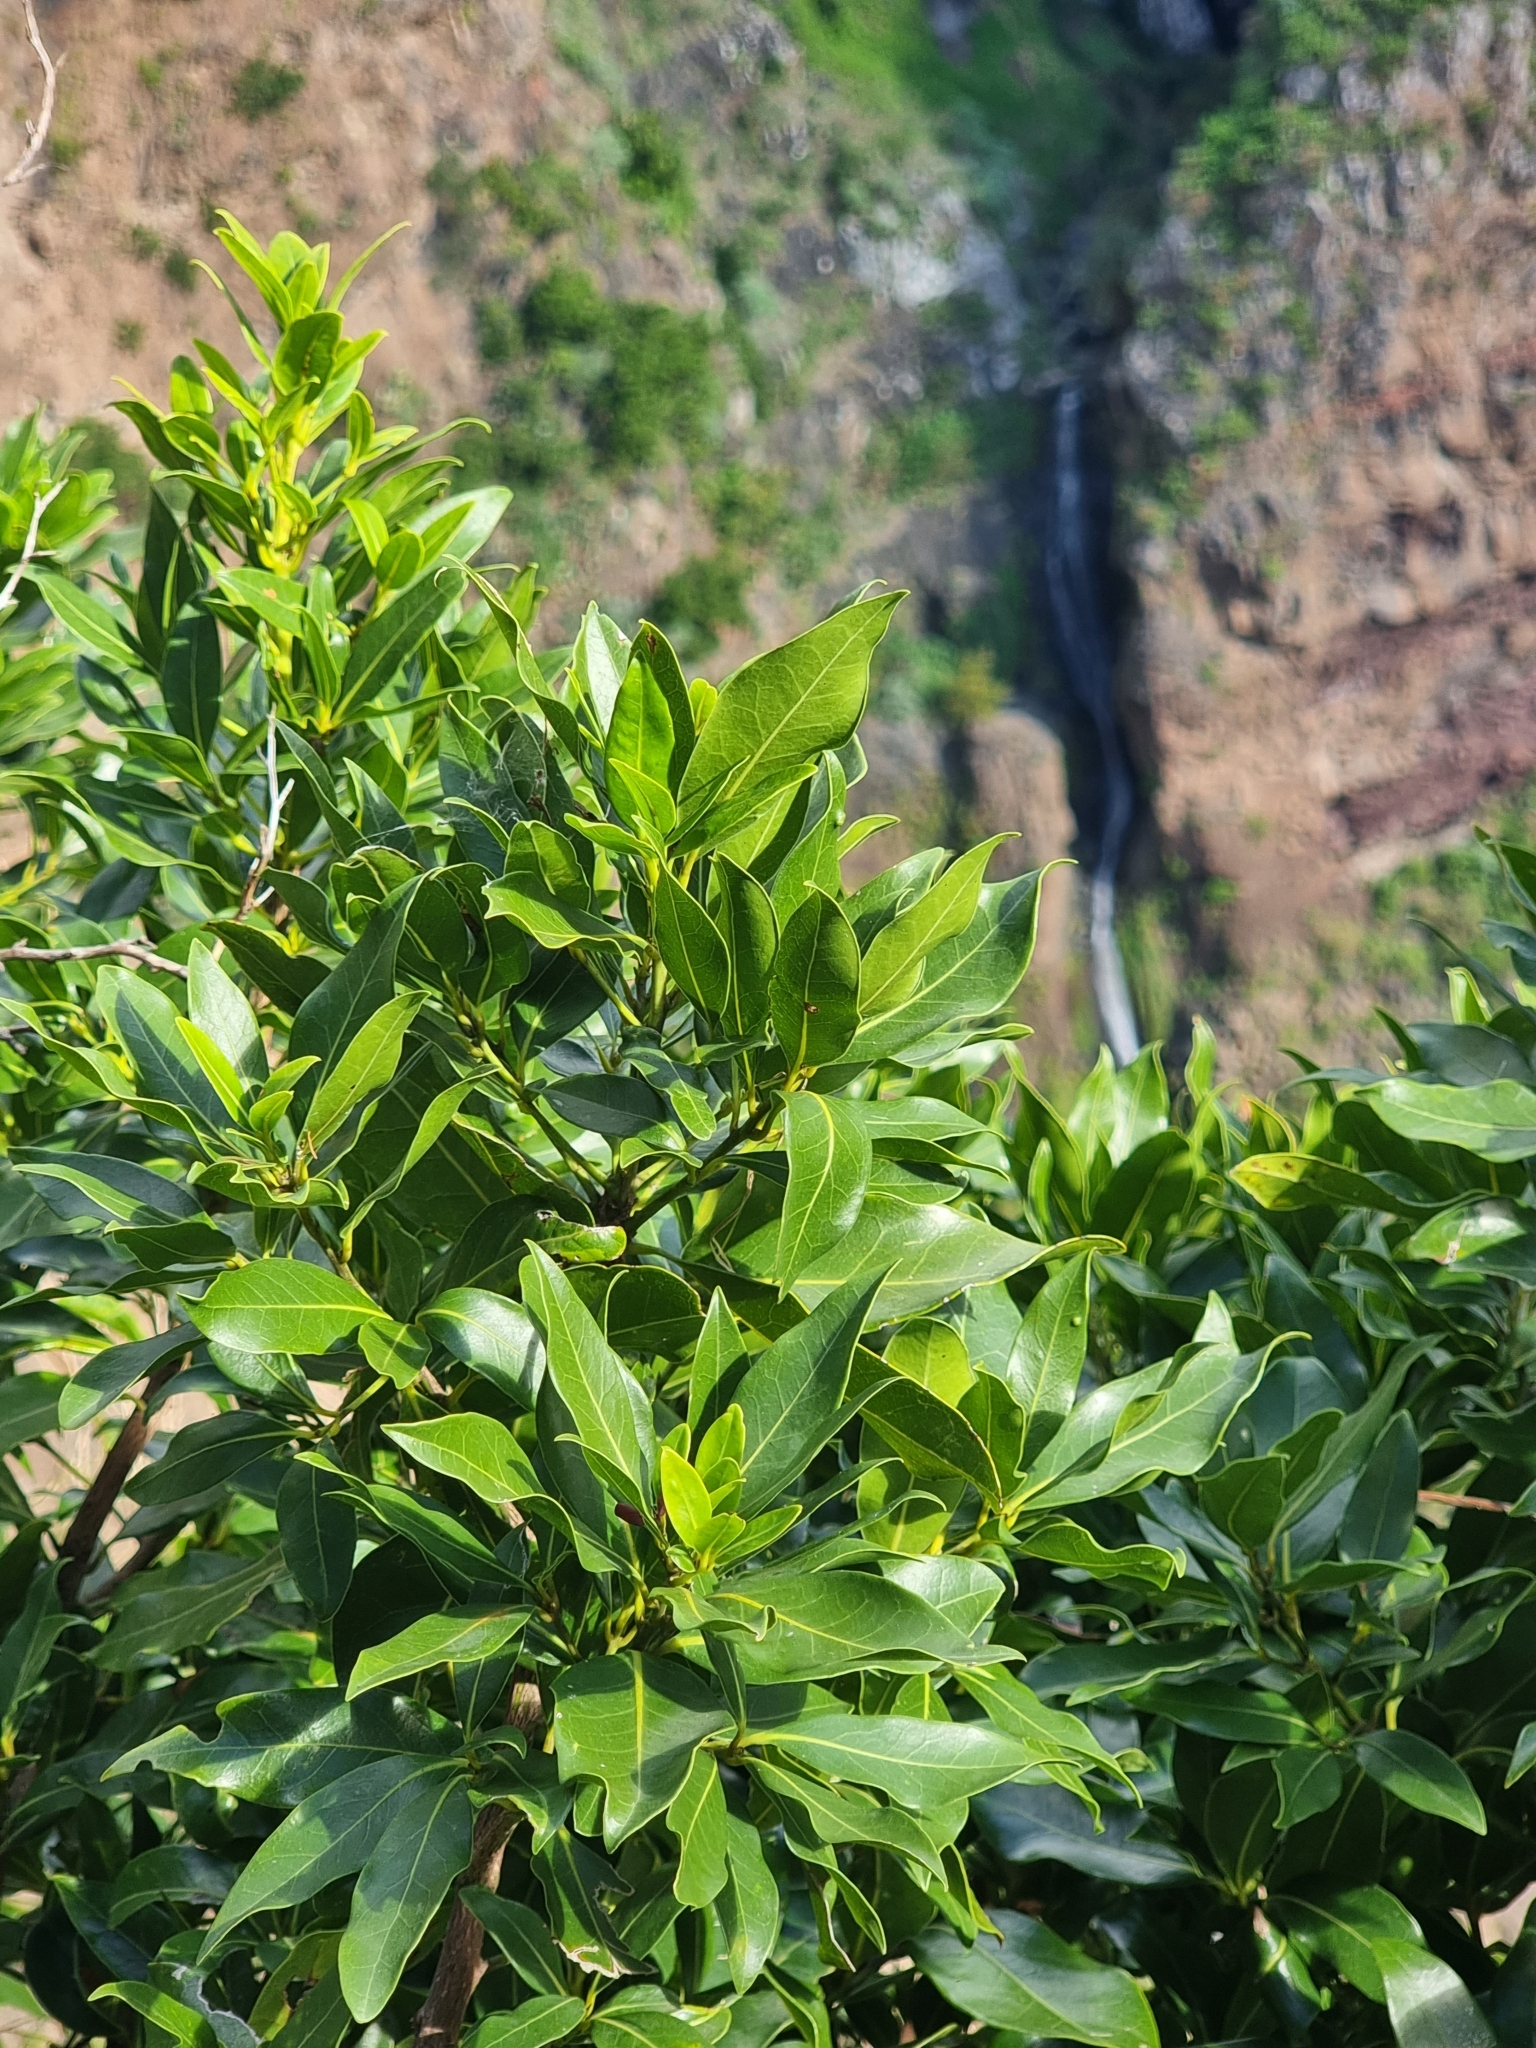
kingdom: Plantae
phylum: Tracheophyta
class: Magnoliopsida
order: Laurales
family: Lauraceae
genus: Apollonias
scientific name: Apollonias barbujana
